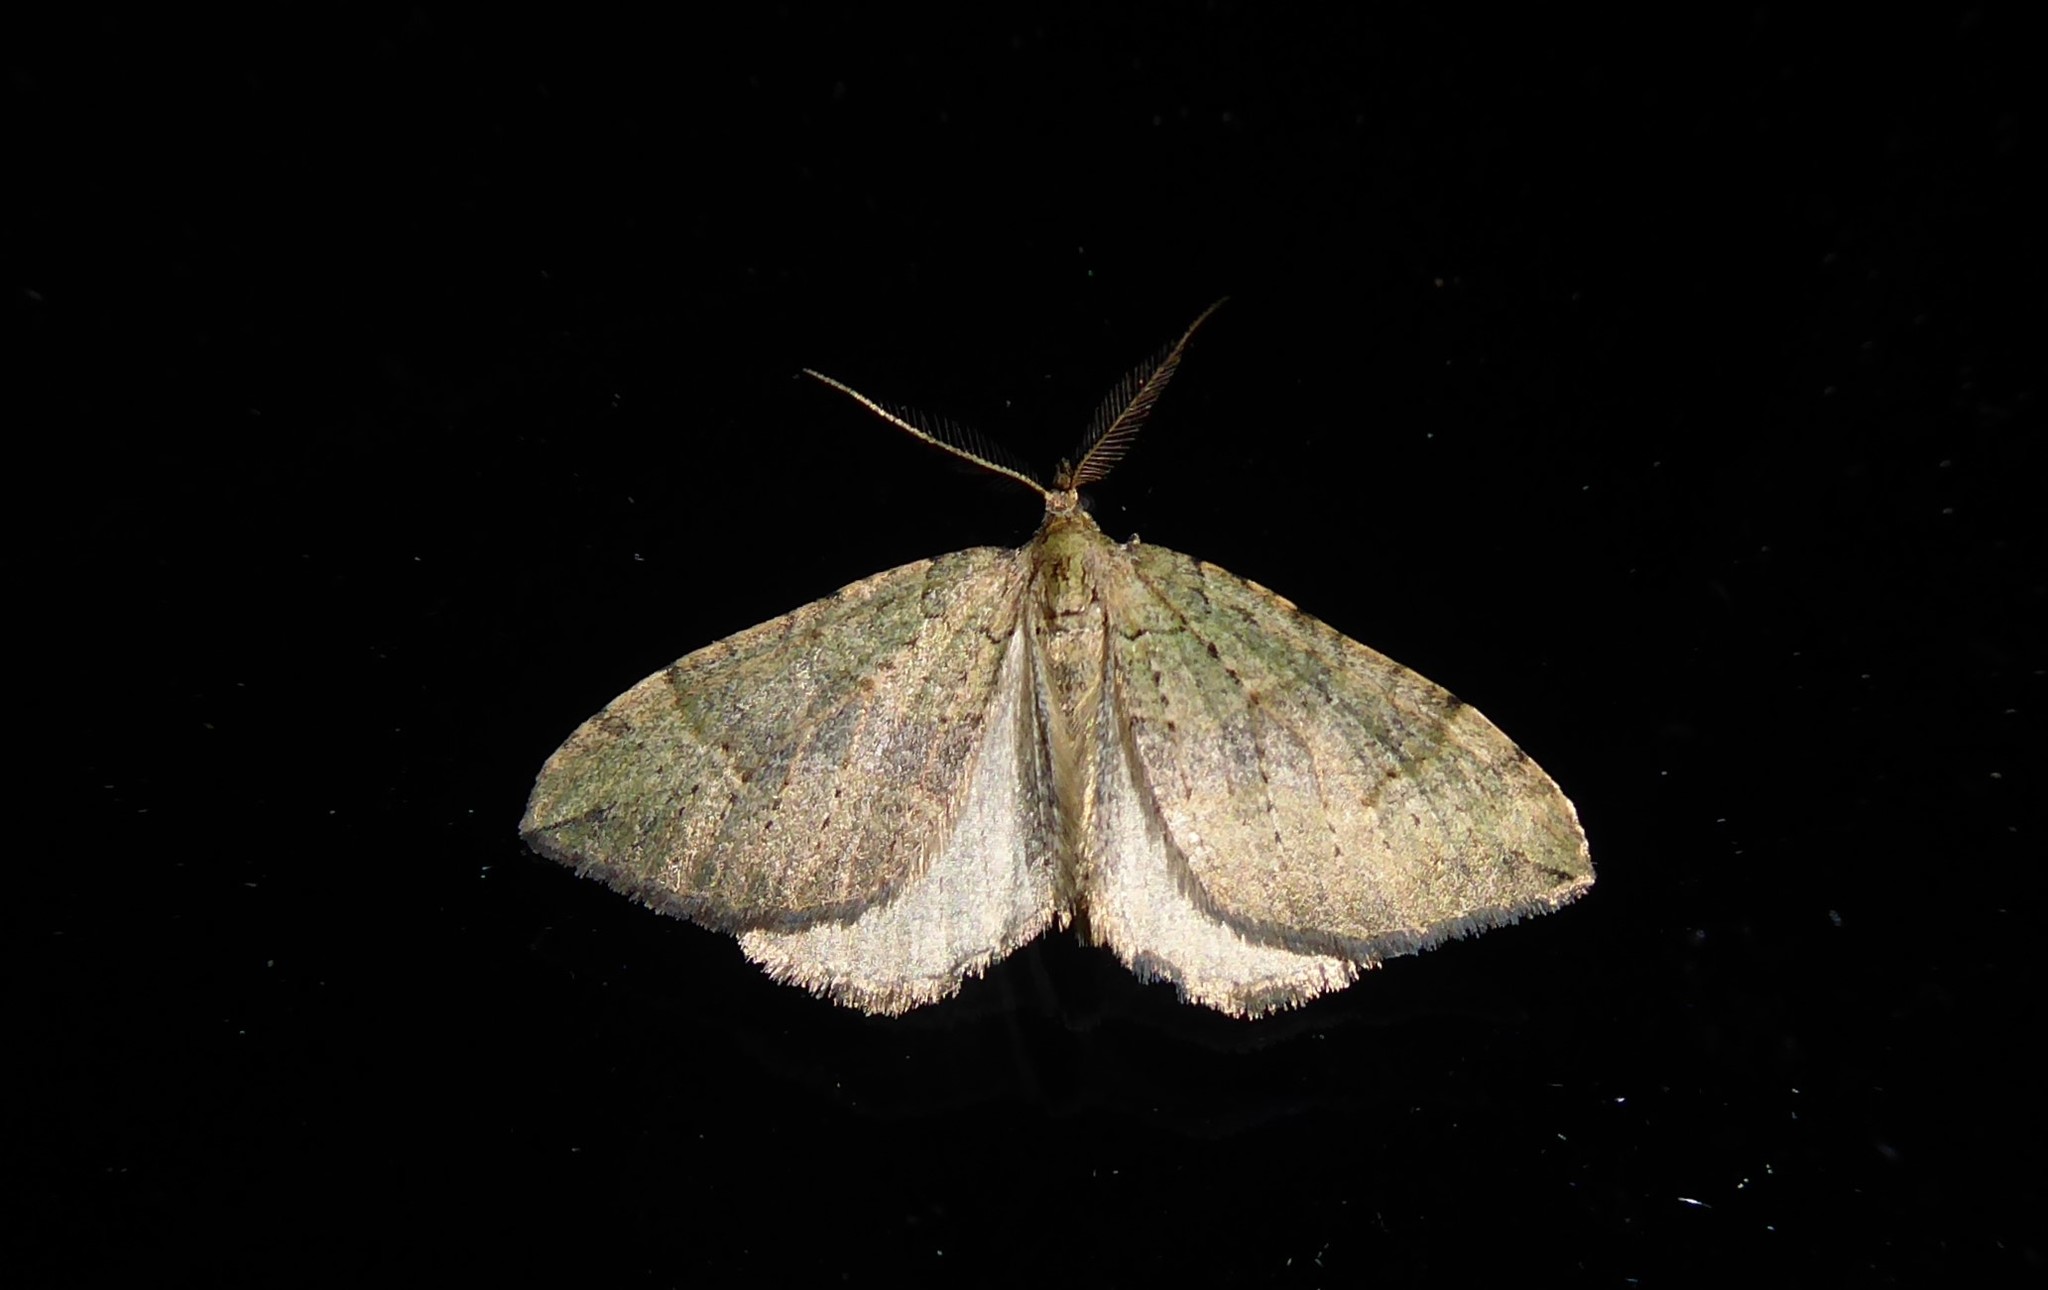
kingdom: Animalia
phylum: Arthropoda
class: Insecta
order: Lepidoptera
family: Geometridae
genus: Epyaxa
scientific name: Epyaxa rosearia
